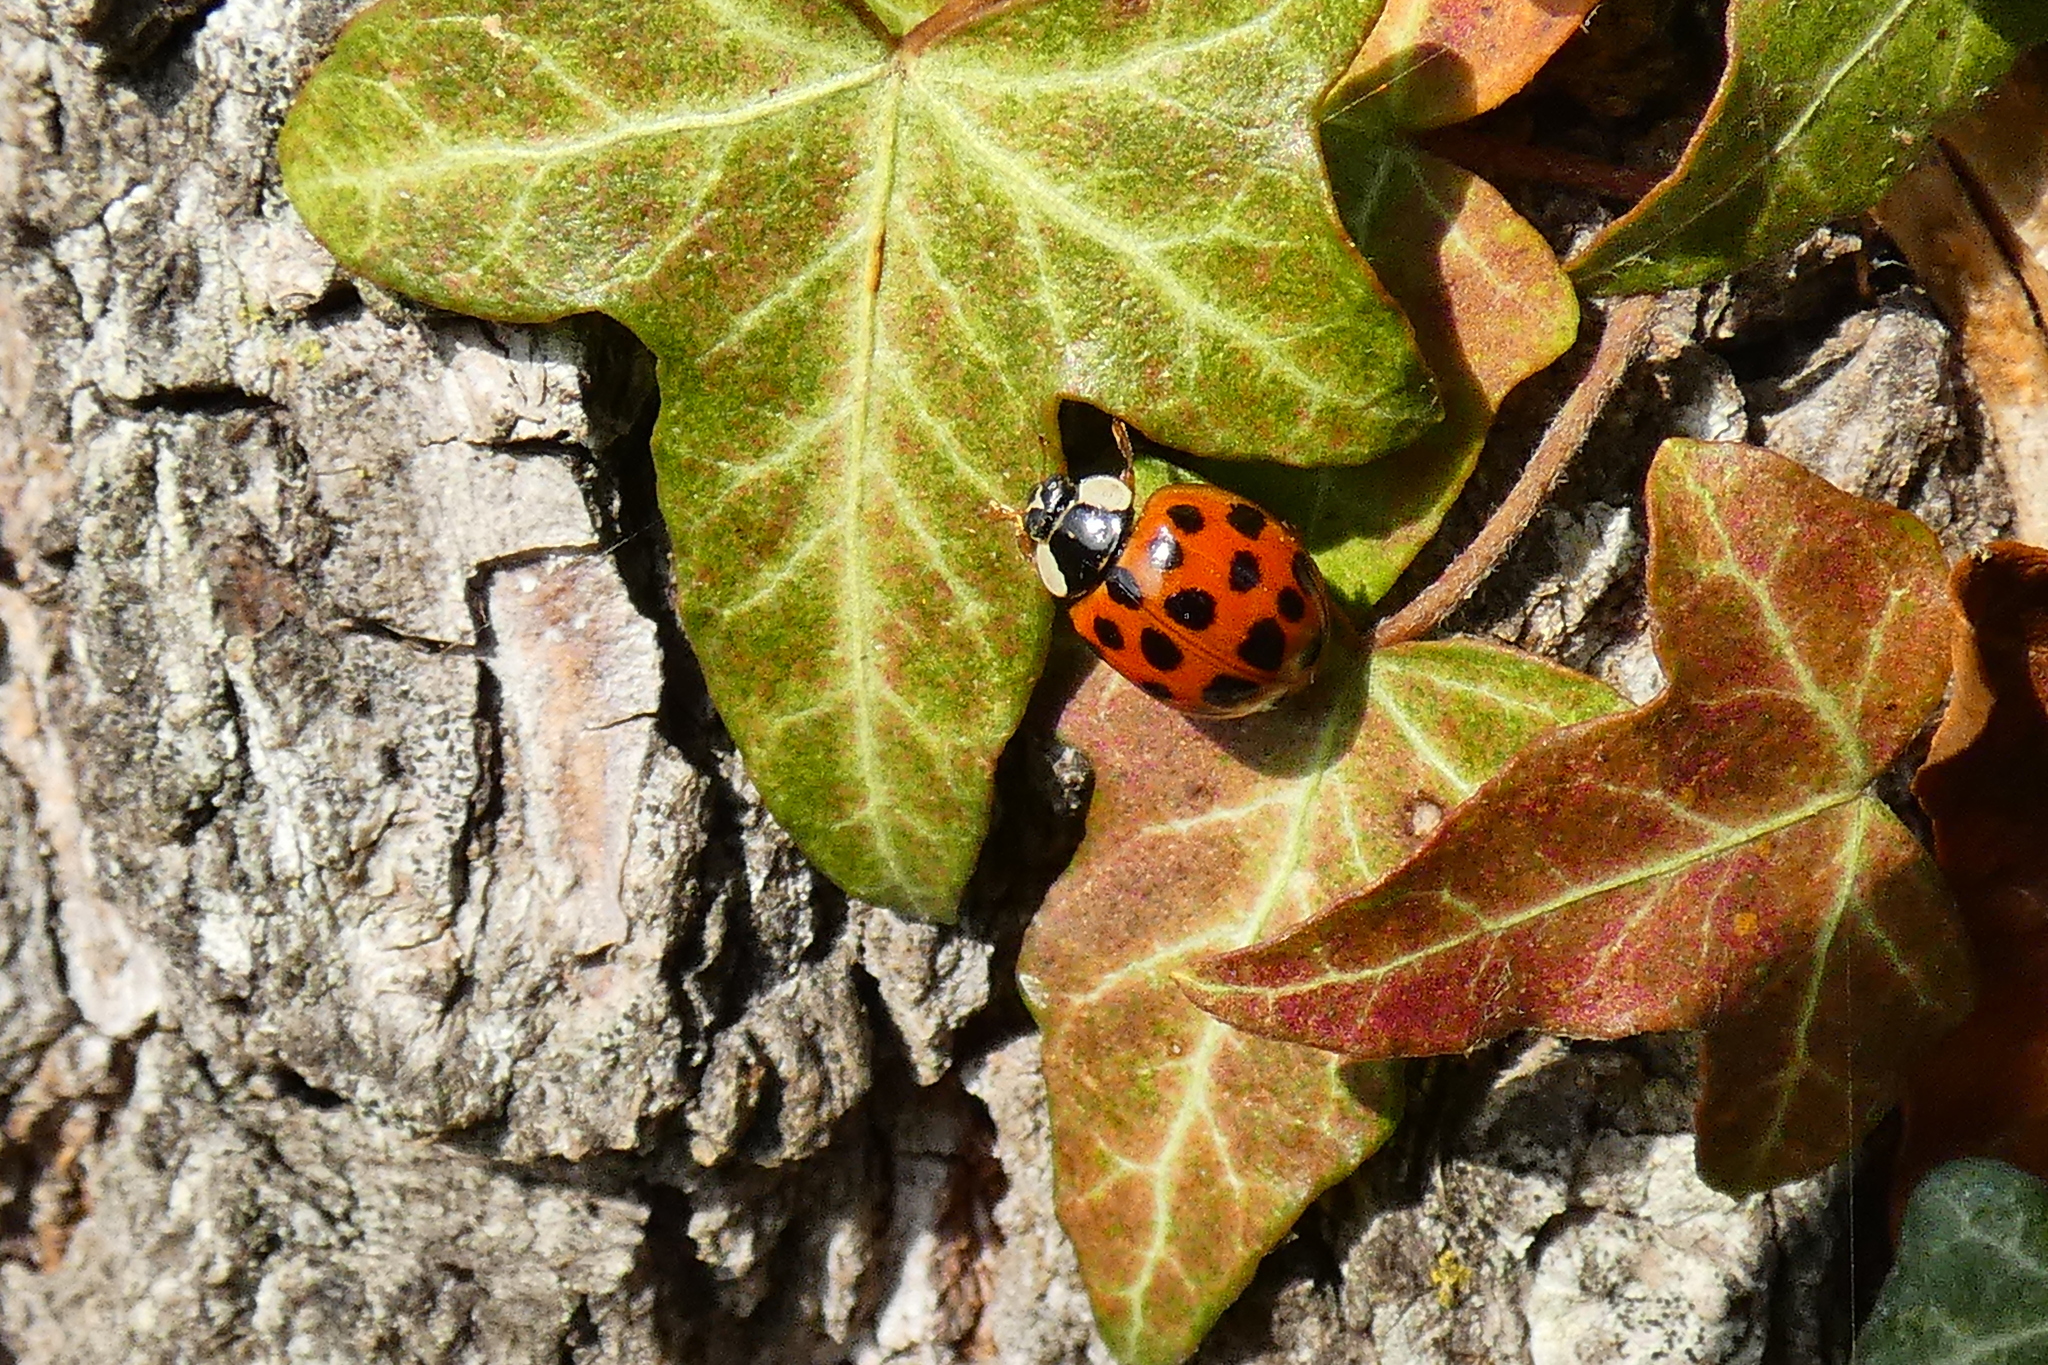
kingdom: Animalia
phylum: Arthropoda
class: Insecta
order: Coleoptera
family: Coccinellidae
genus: Harmonia
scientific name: Harmonia axyridis
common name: Harlequin ladybird
